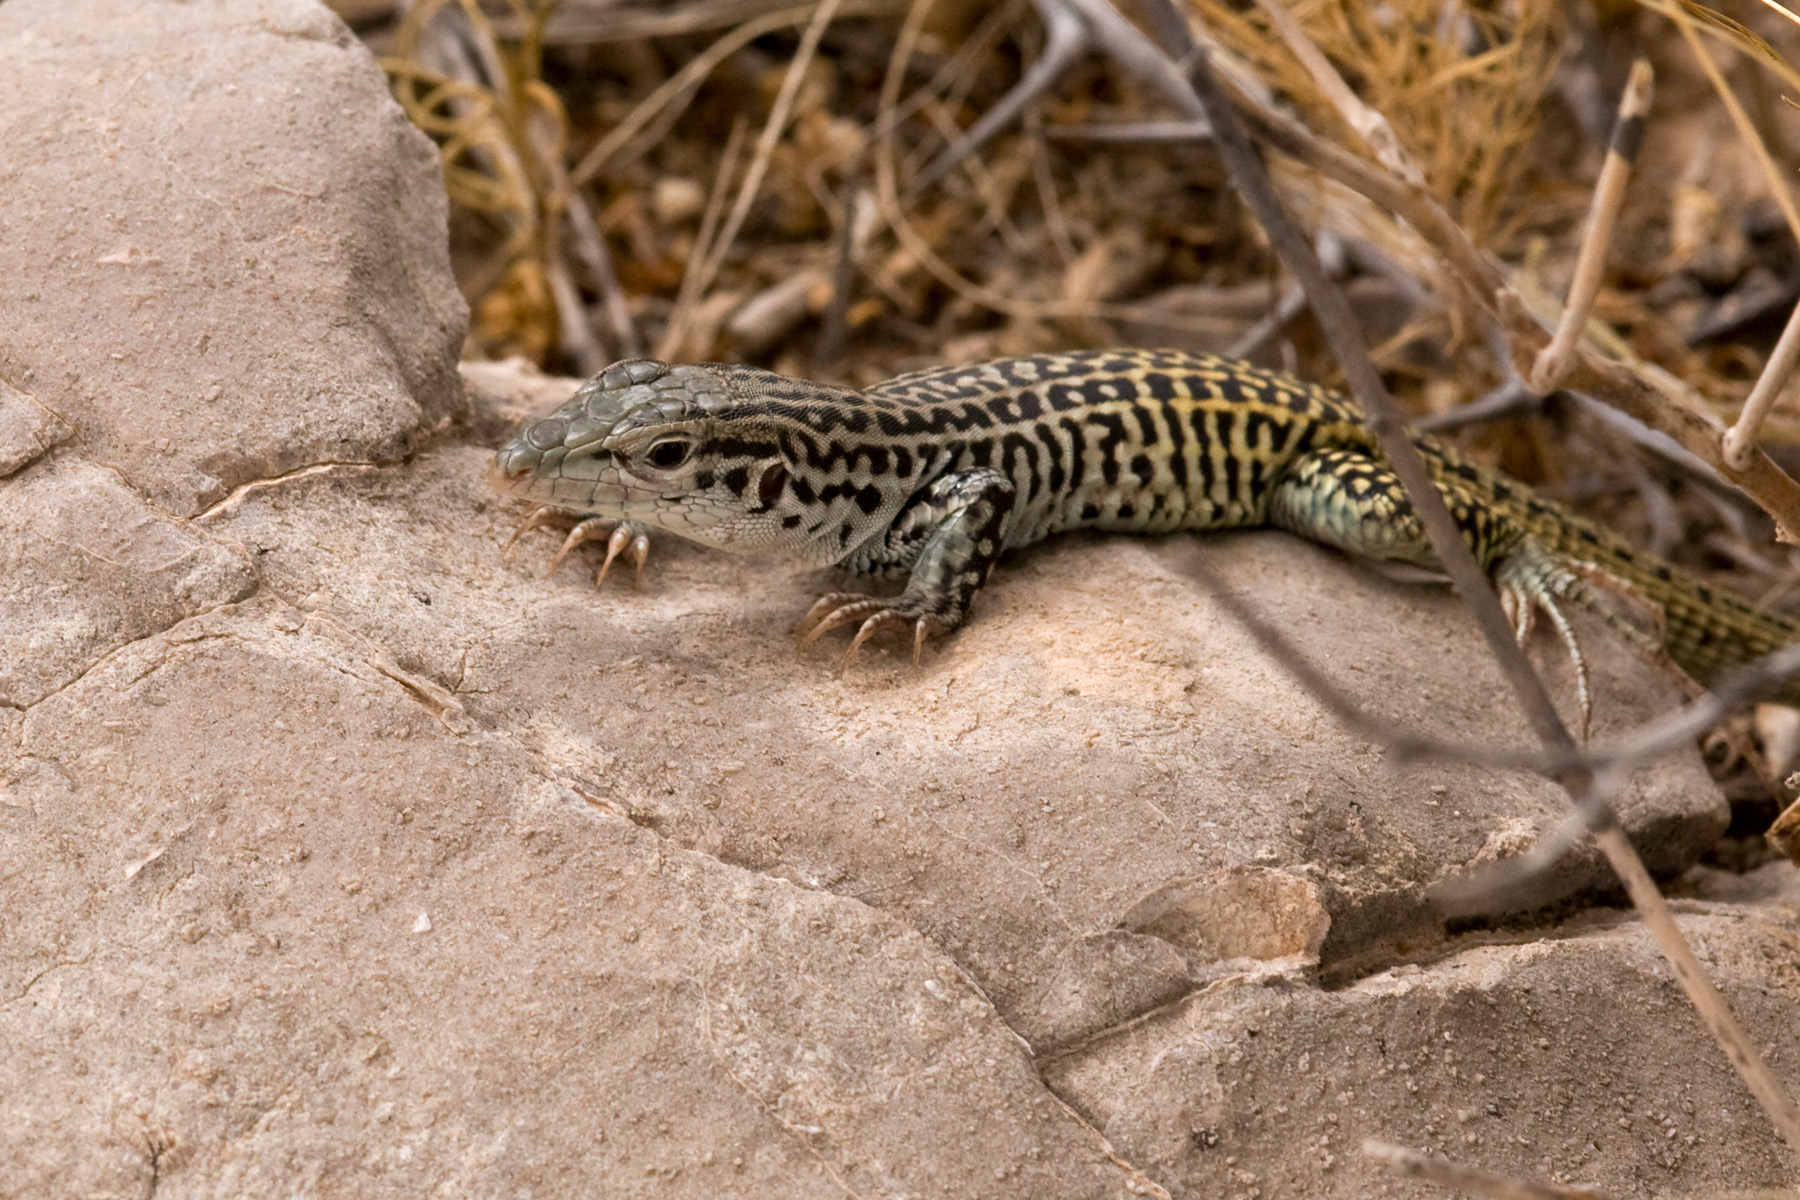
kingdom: Animalia
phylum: Chordata
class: Squamata
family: Teiidae
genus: Aspidoscelis
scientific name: Aspidoscelis tesselatus
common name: Common checkered whiptail [tesselata]
